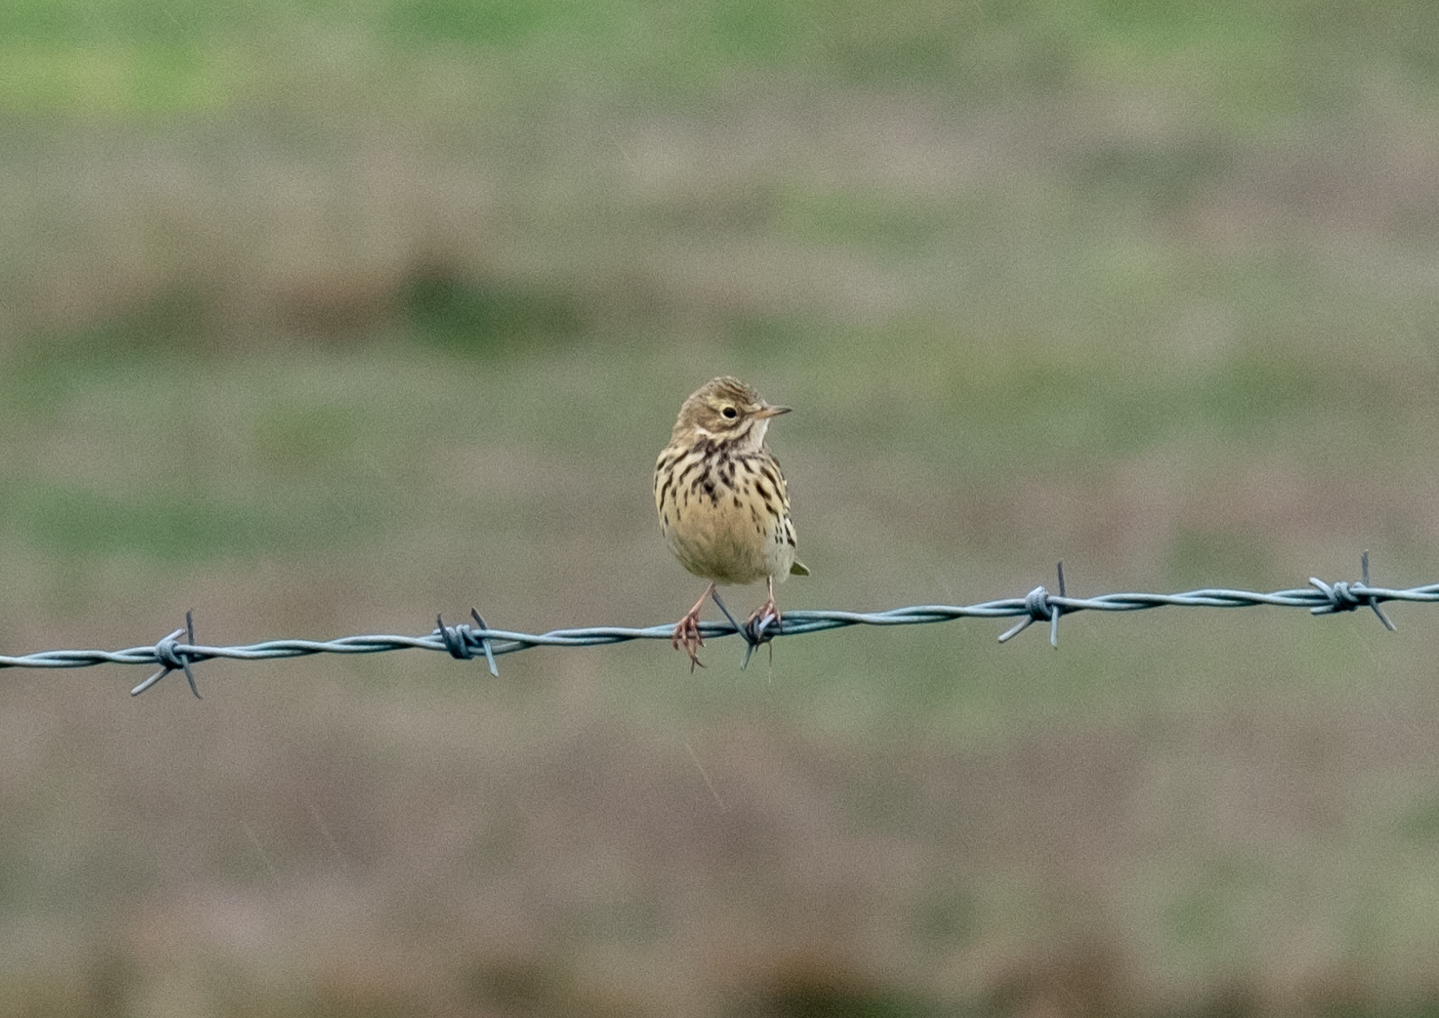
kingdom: Animalia
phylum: Chordata
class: Aves
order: Passeriformes
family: Motacillidae
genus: Anthus
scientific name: Anthus pratensis
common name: Meadow pipit
